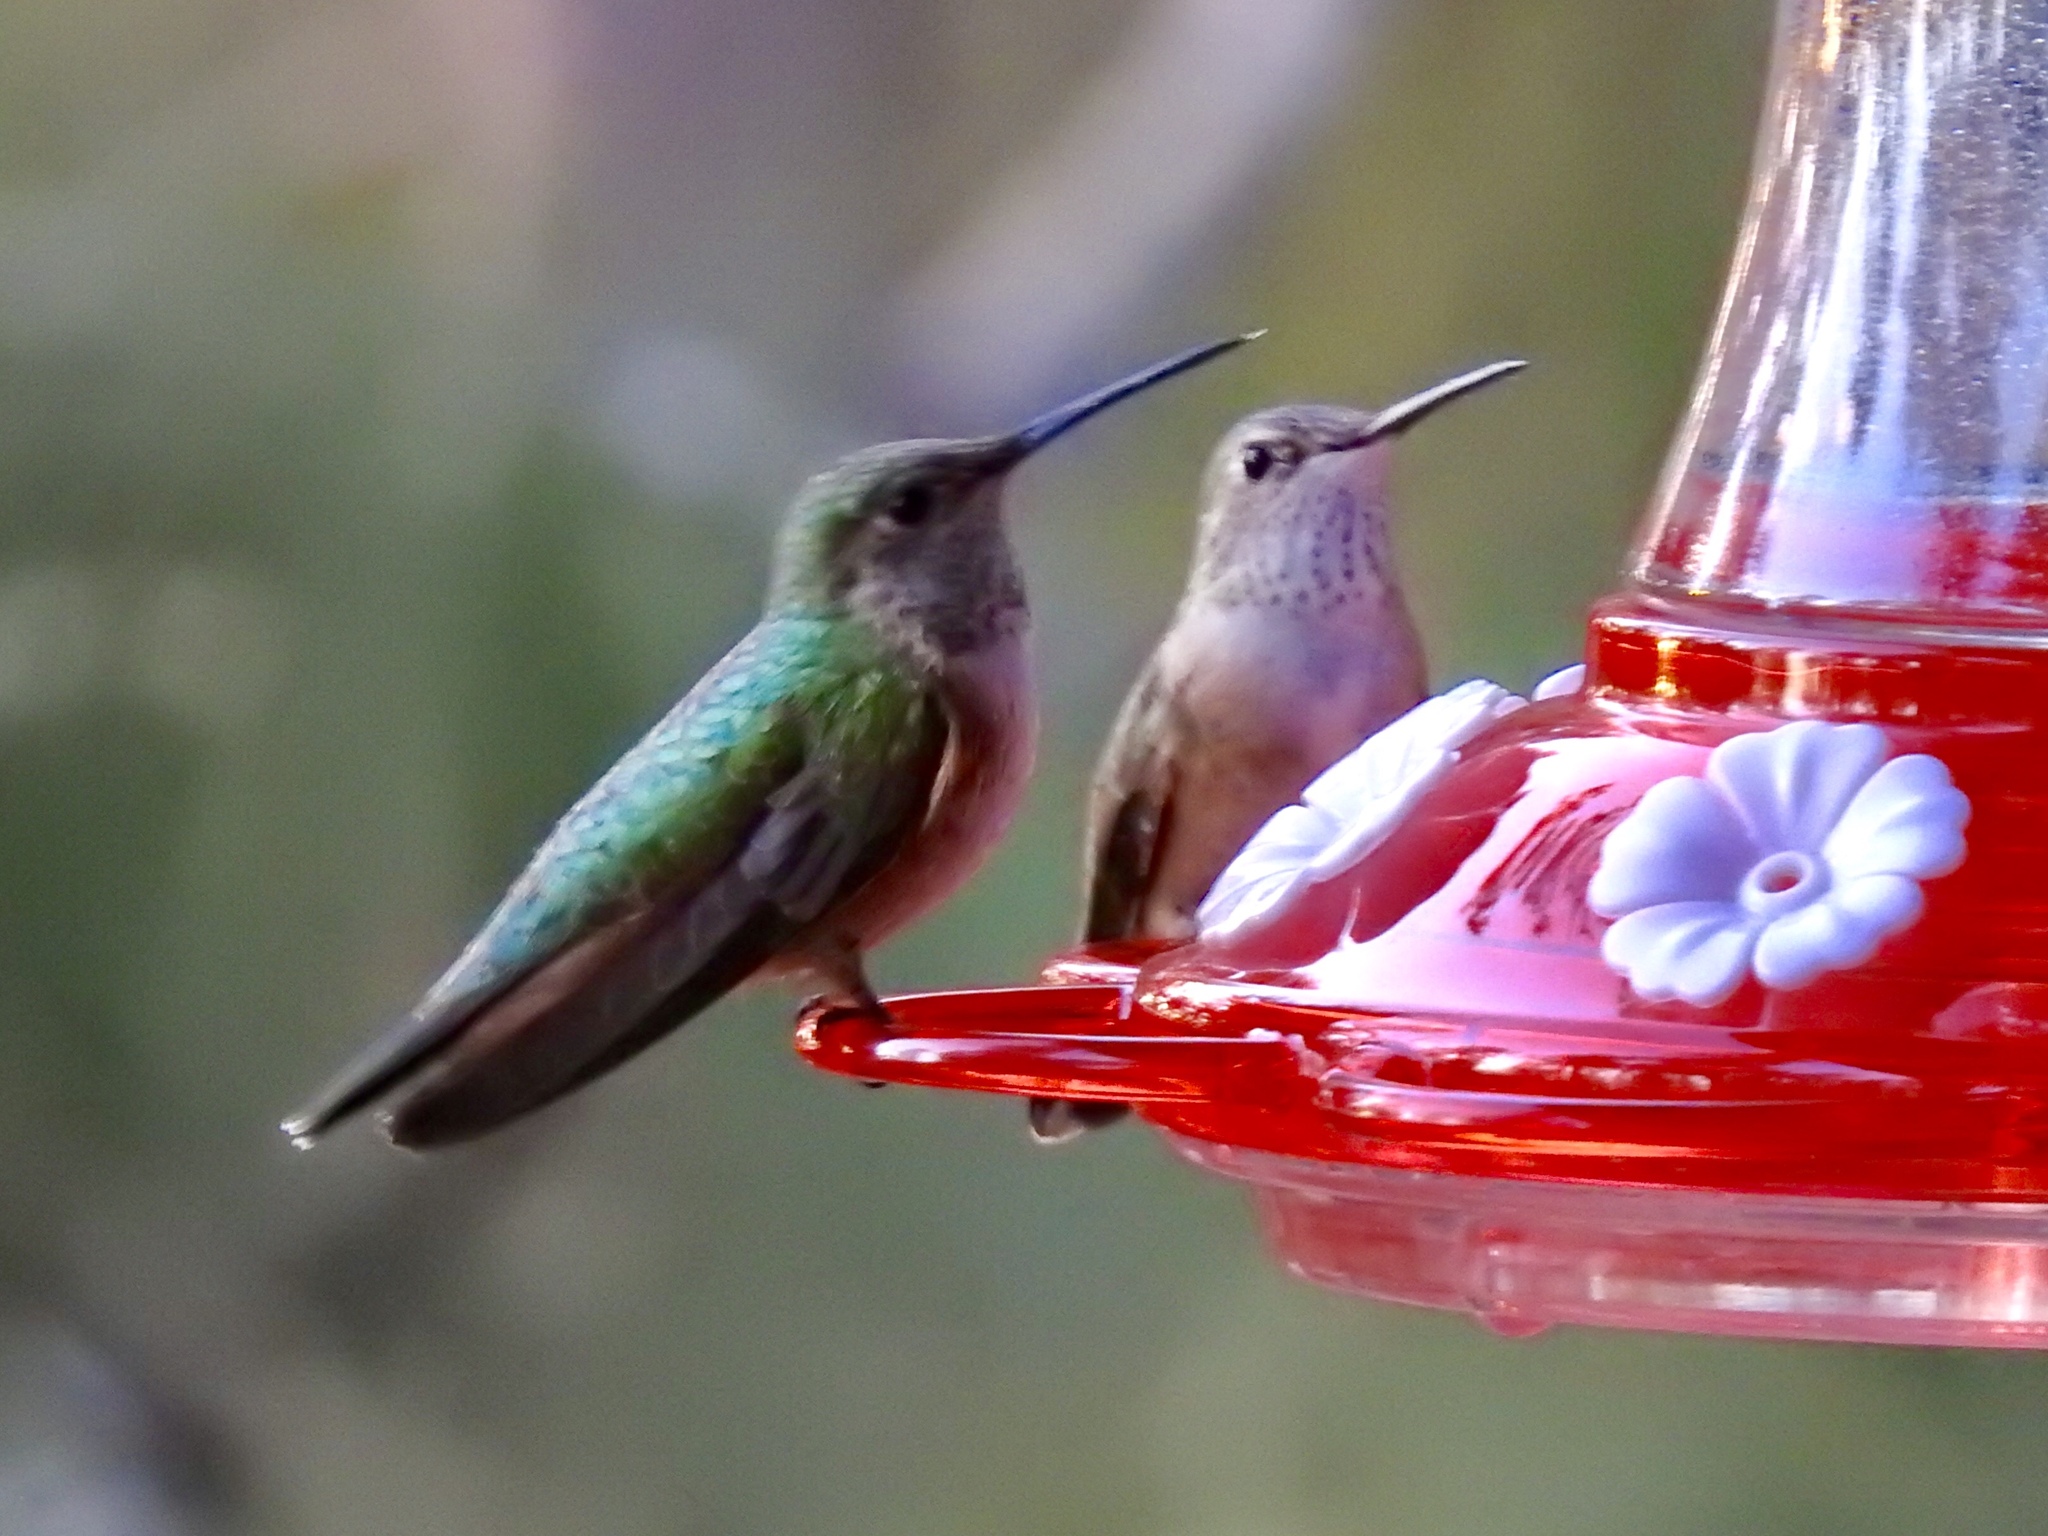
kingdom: Animalia
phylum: Chordata
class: Aves
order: Apodiformes
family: Trochilidae
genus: Selasphorus
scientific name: Selasphorus platycercus
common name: Broad-tailed hummingbird
